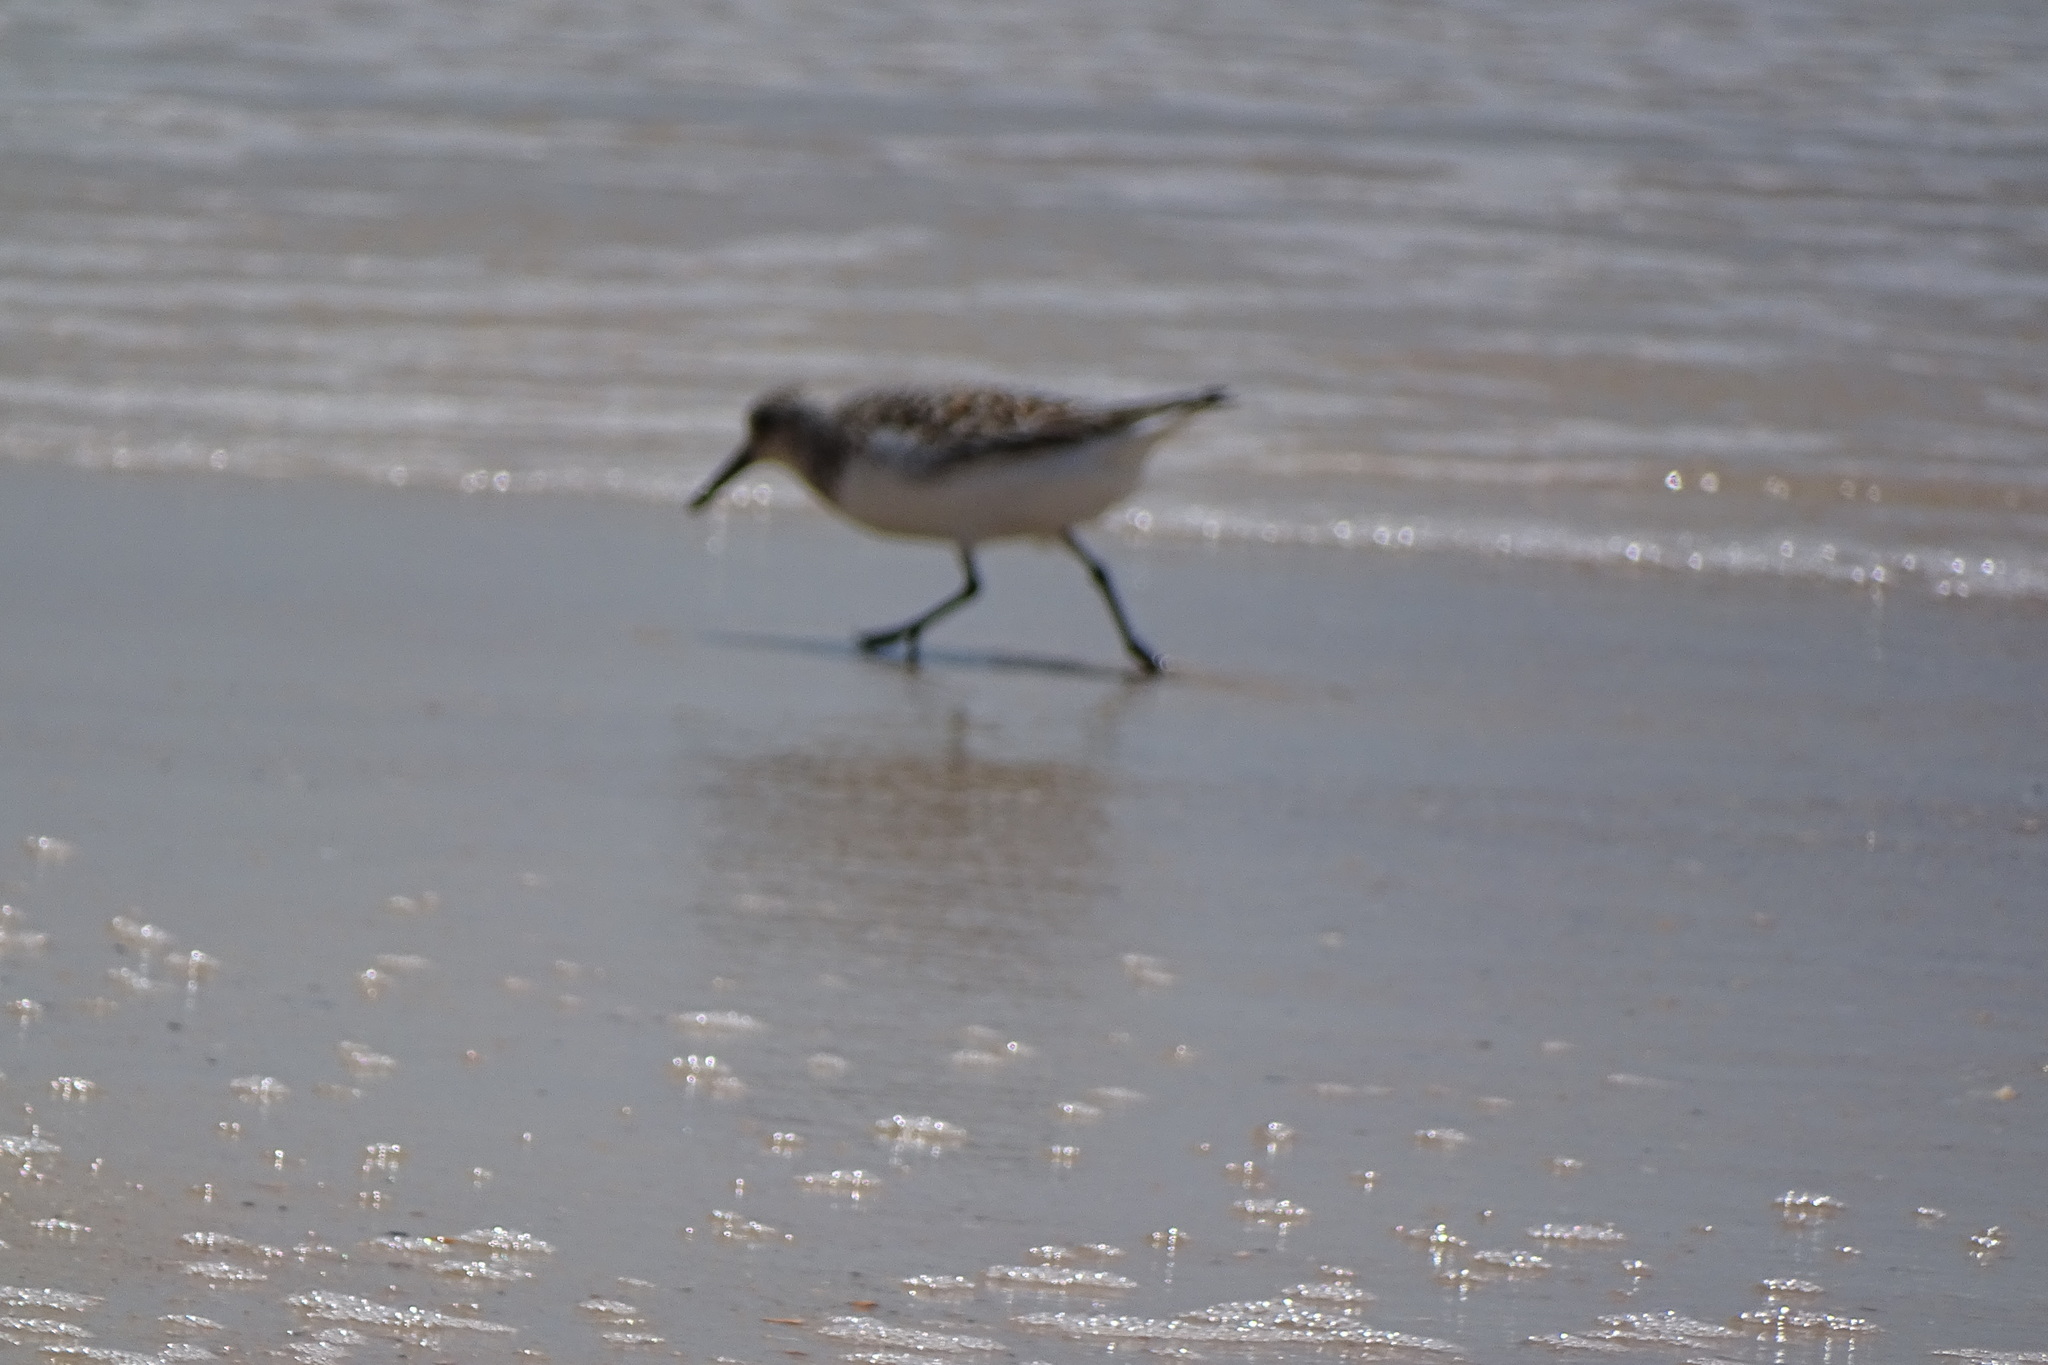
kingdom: Animalia
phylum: Chordata
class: Aves
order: Charadriiformes
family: Scolopacidae
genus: Calidris
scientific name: Calidris alba
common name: Sanderling
